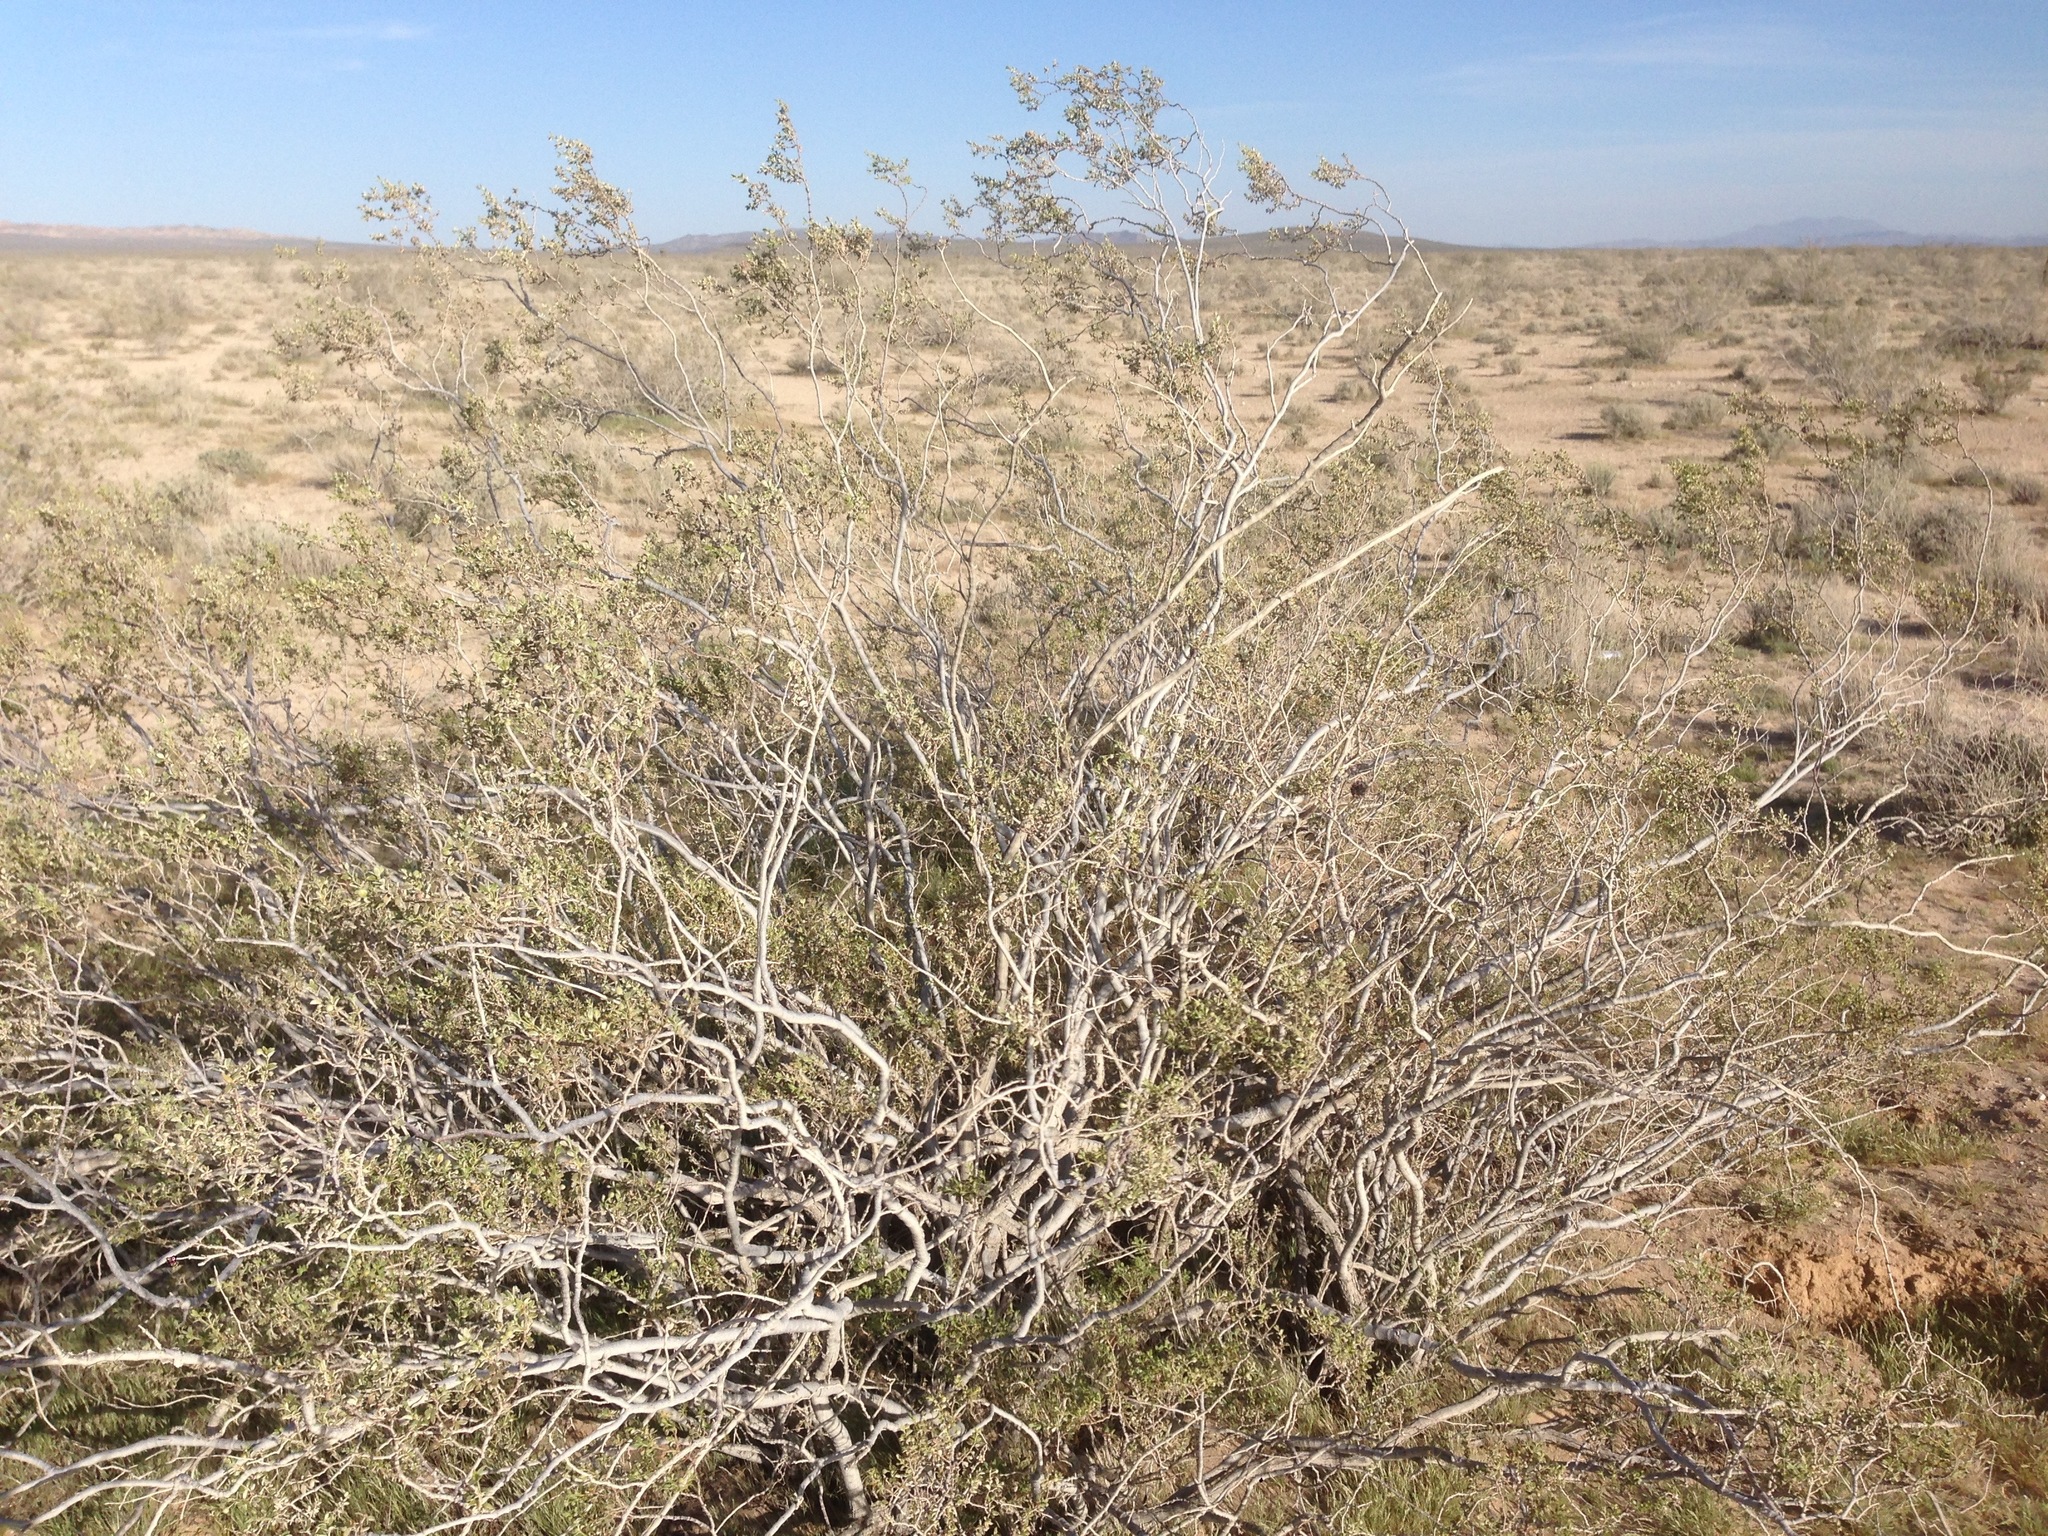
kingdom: Plantae
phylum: Tracheophyta
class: Magnoliopsida
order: Zygophyllales
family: Zygophyllaceae
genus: Larrea
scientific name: Larrea tridentata
